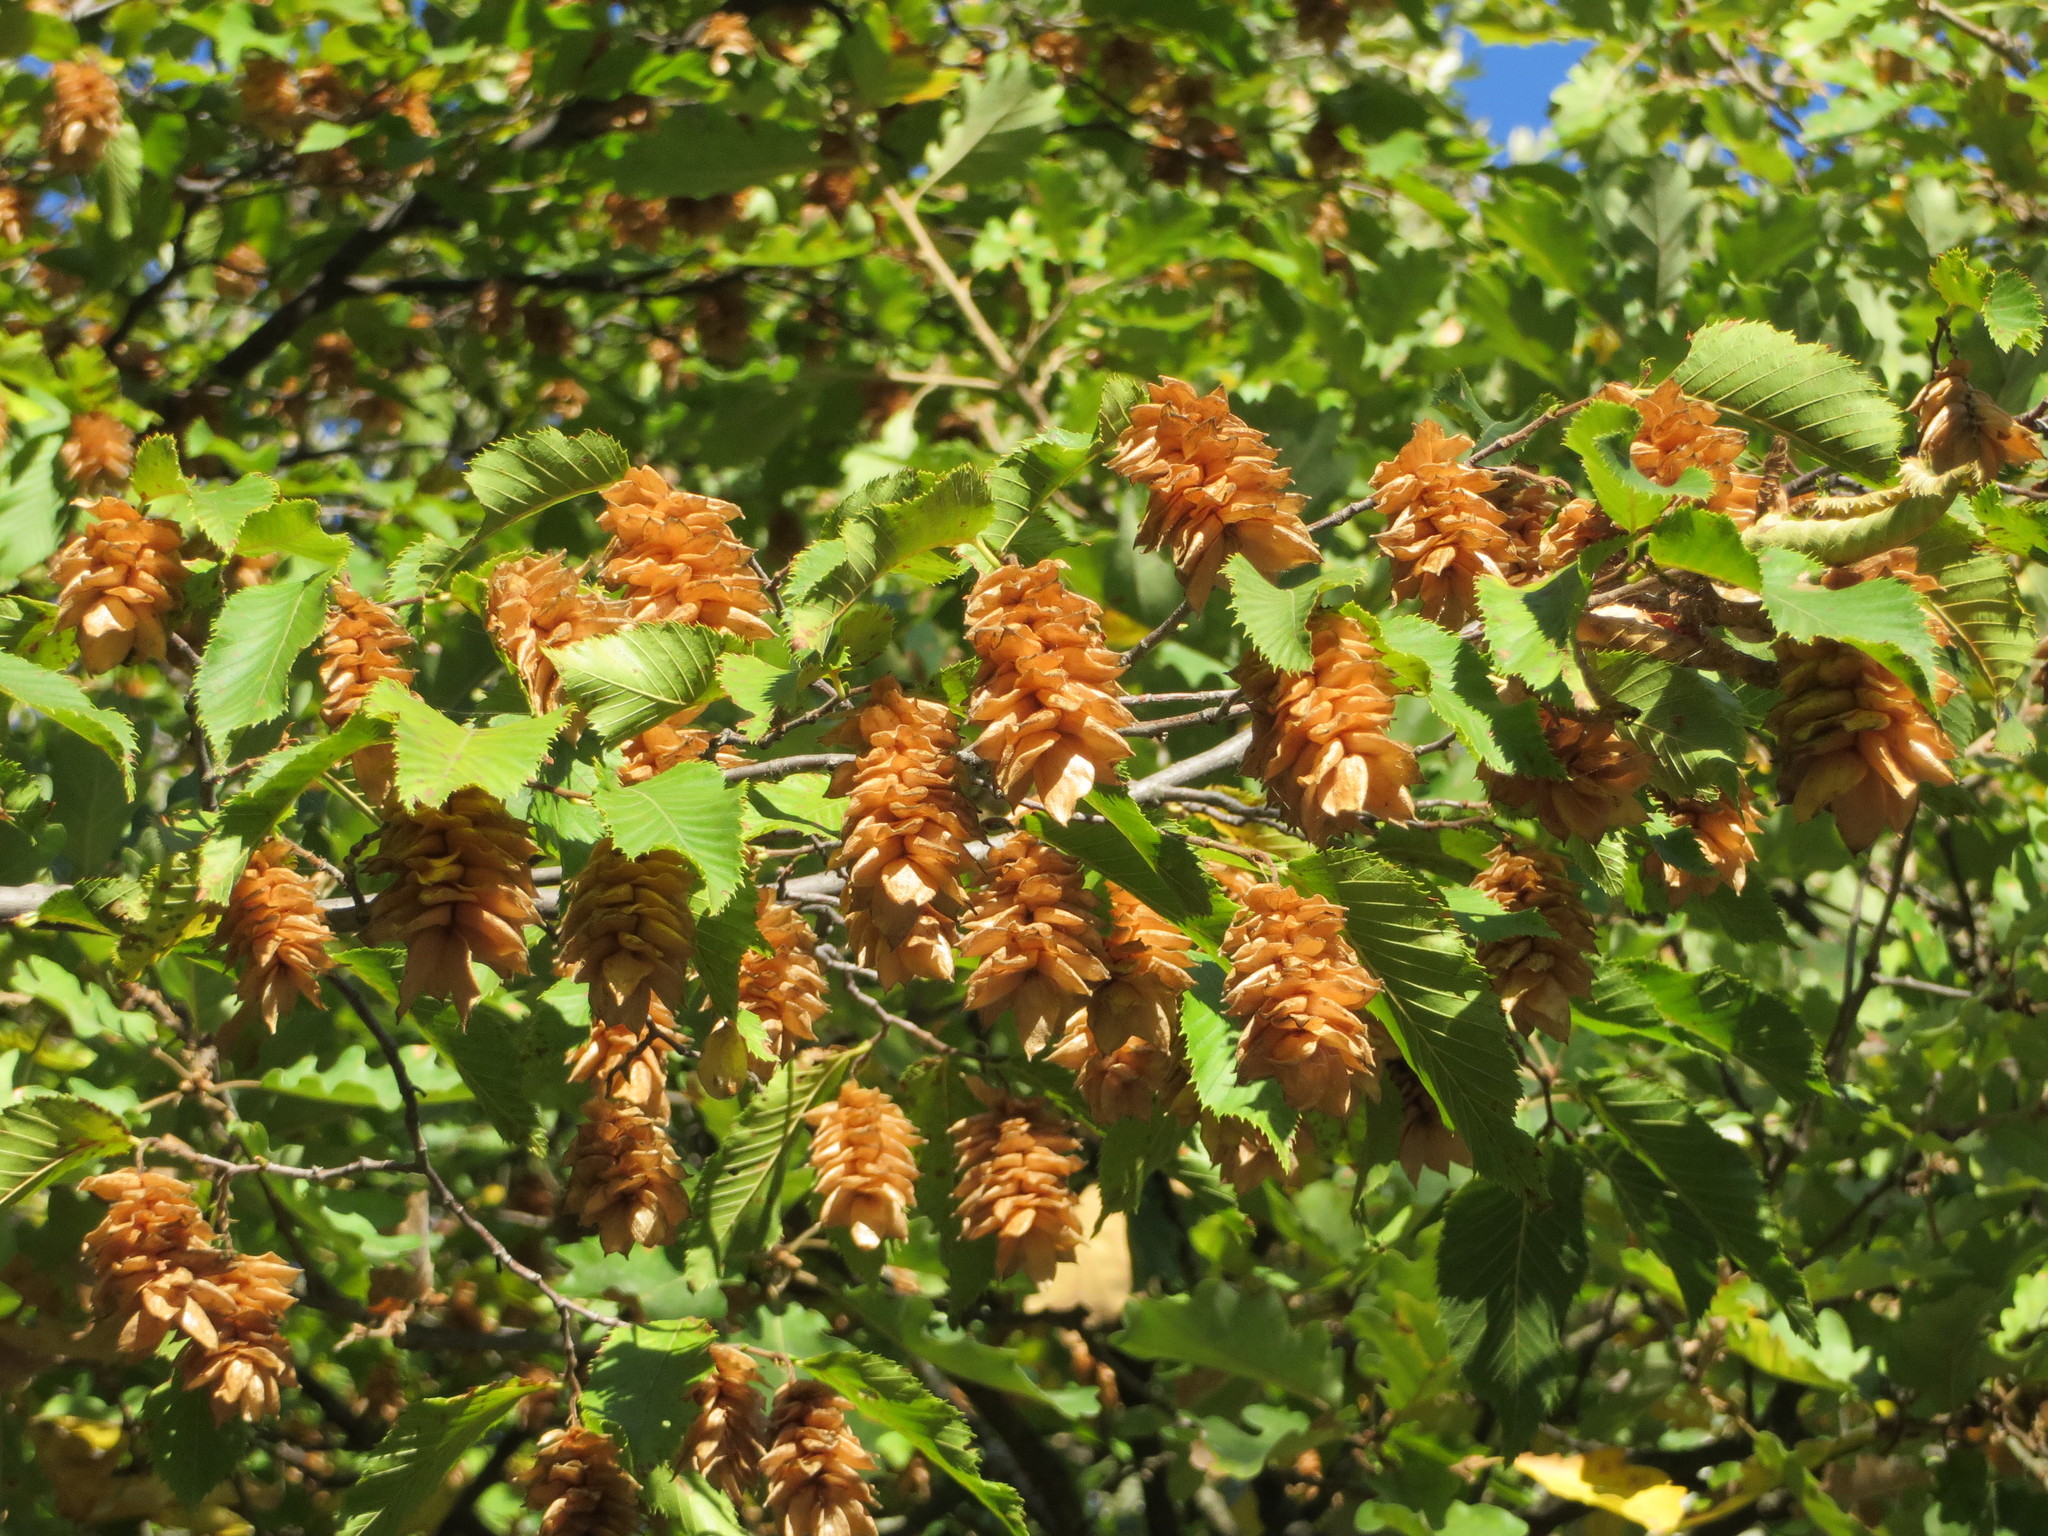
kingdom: Plantae
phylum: Tracheophyta
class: Magnoliopsida
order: Fagales
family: Betulaceae
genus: Ostrya
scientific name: Ostrya carpinifolia
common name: European hop-hornbeam
